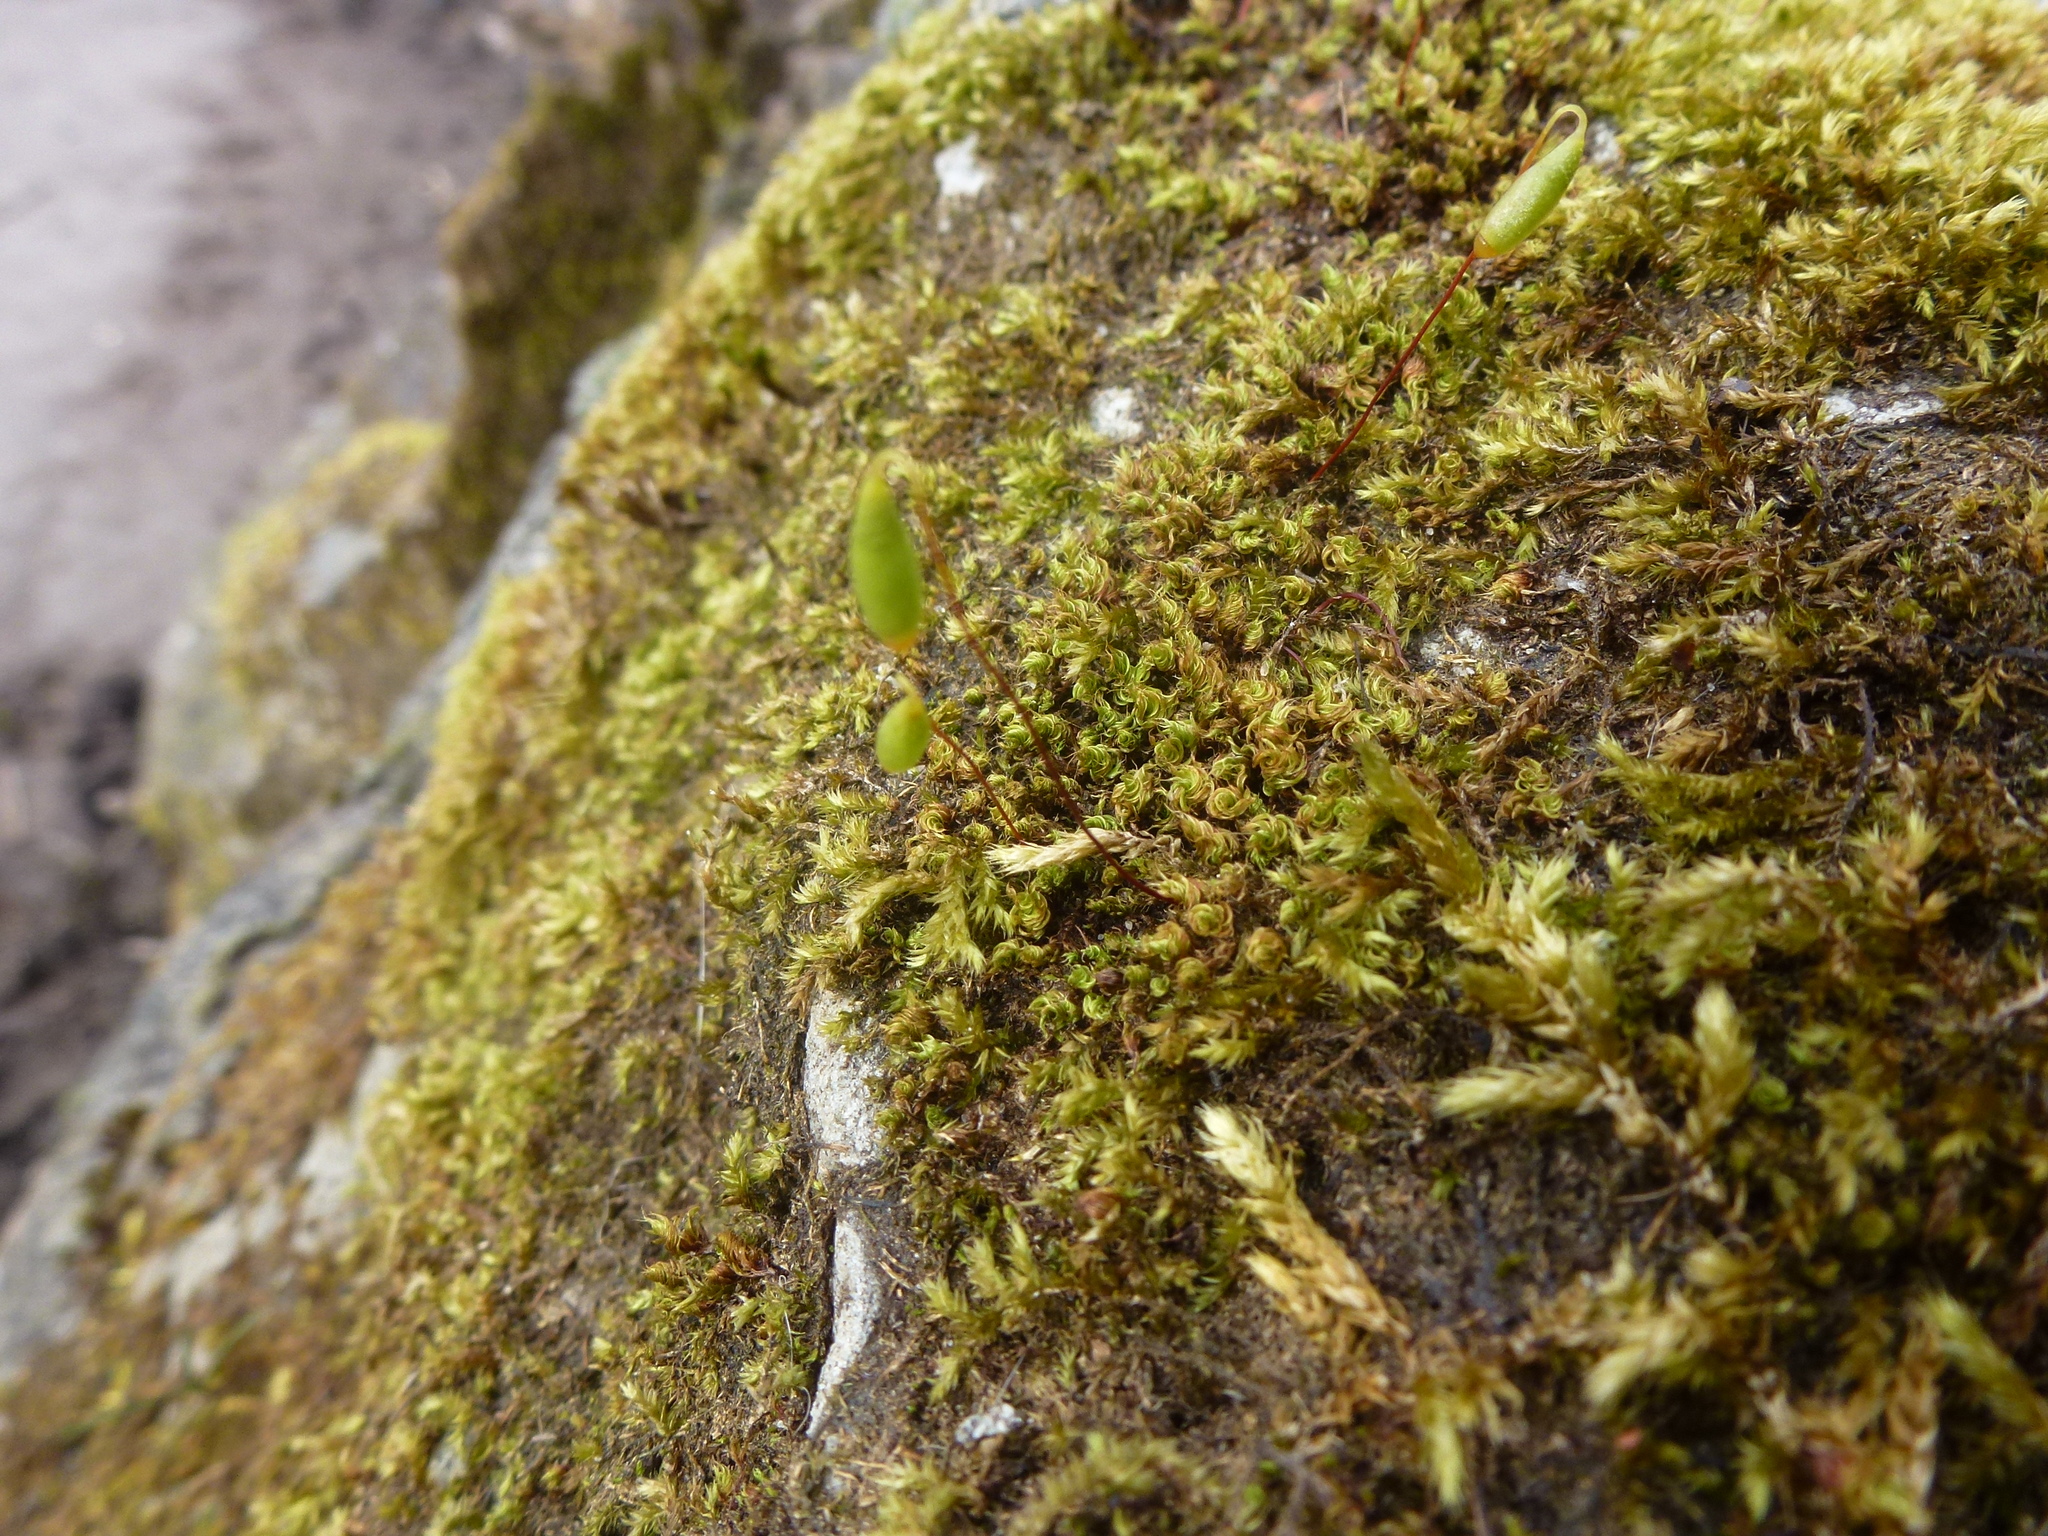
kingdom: Plantae
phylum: Bryophyta
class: Bryopsida
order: Bryales
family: Bryaceae
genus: Rosulabryum
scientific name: Rosulabryum capillare
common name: Capillary thread-moss
